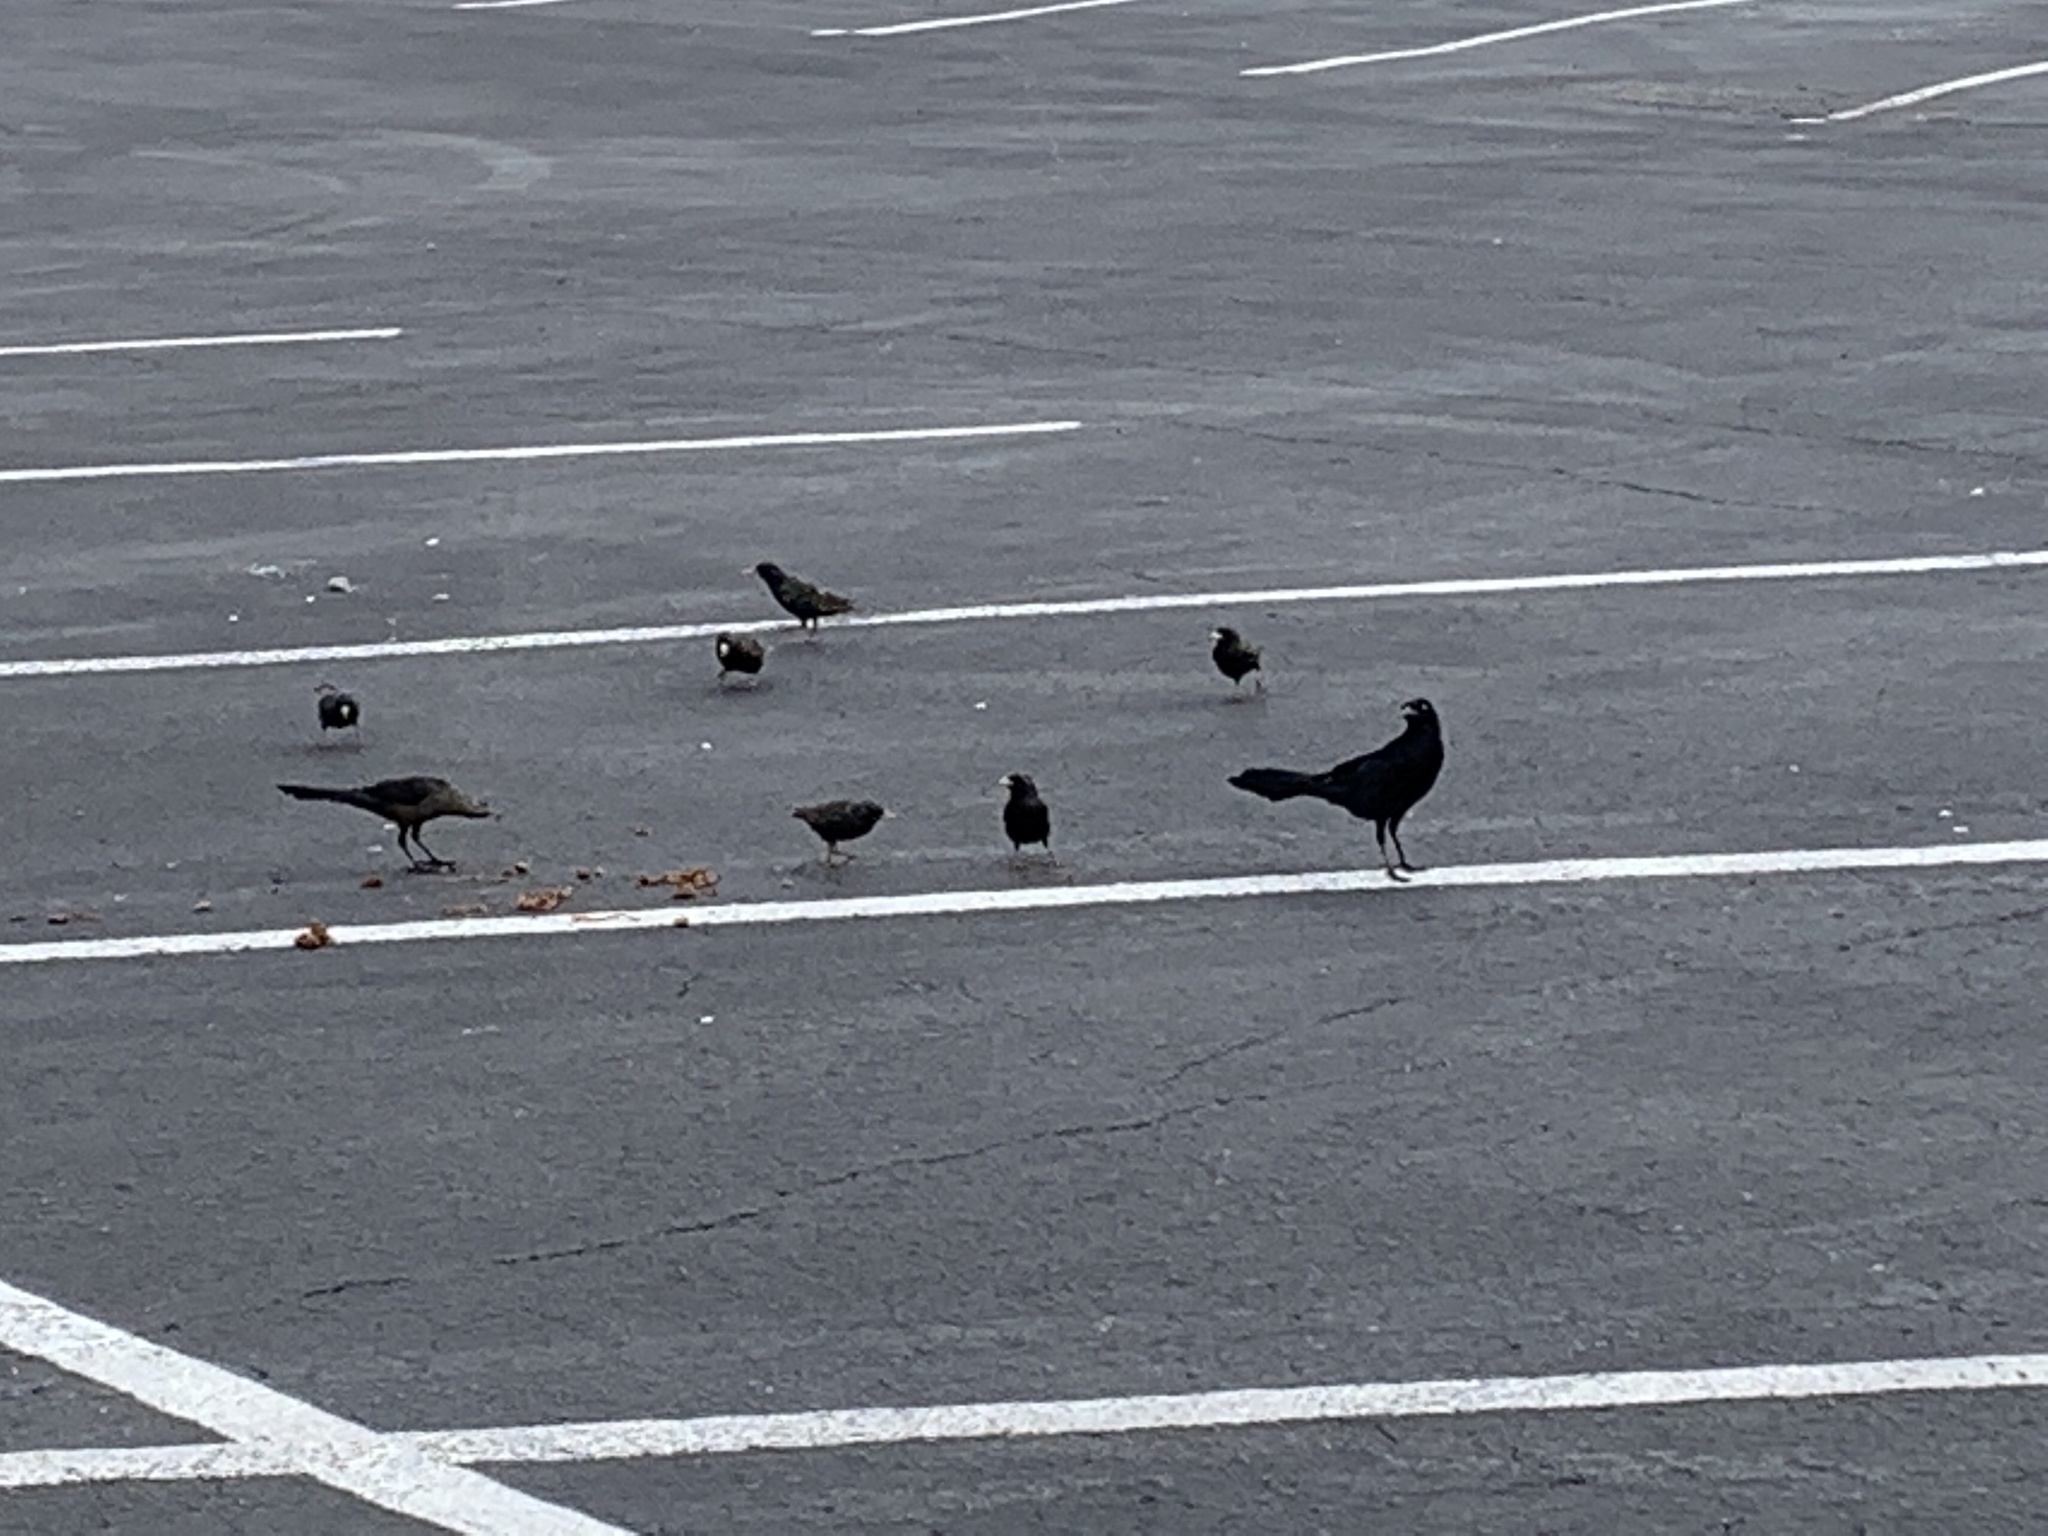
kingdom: Animalia
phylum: Chordata
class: Aves
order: Passeriformes
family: Sturnidae
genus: Sturnus
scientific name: Sturnus vulgaris
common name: Common starling
